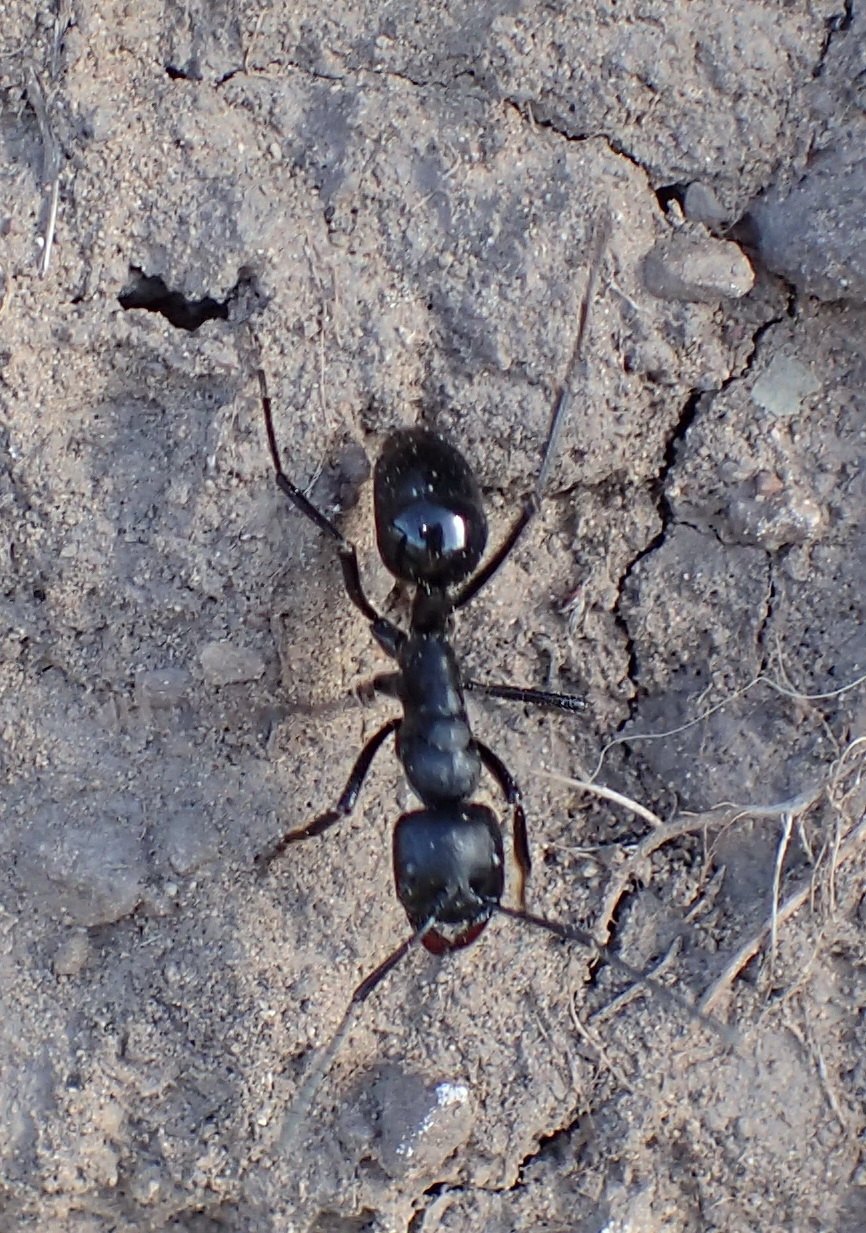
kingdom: Animalia
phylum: Arthropoda
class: Insecta
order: Hymenoptera
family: Formicidae
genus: Streblognathus
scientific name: Streblognathus aethiopicus
